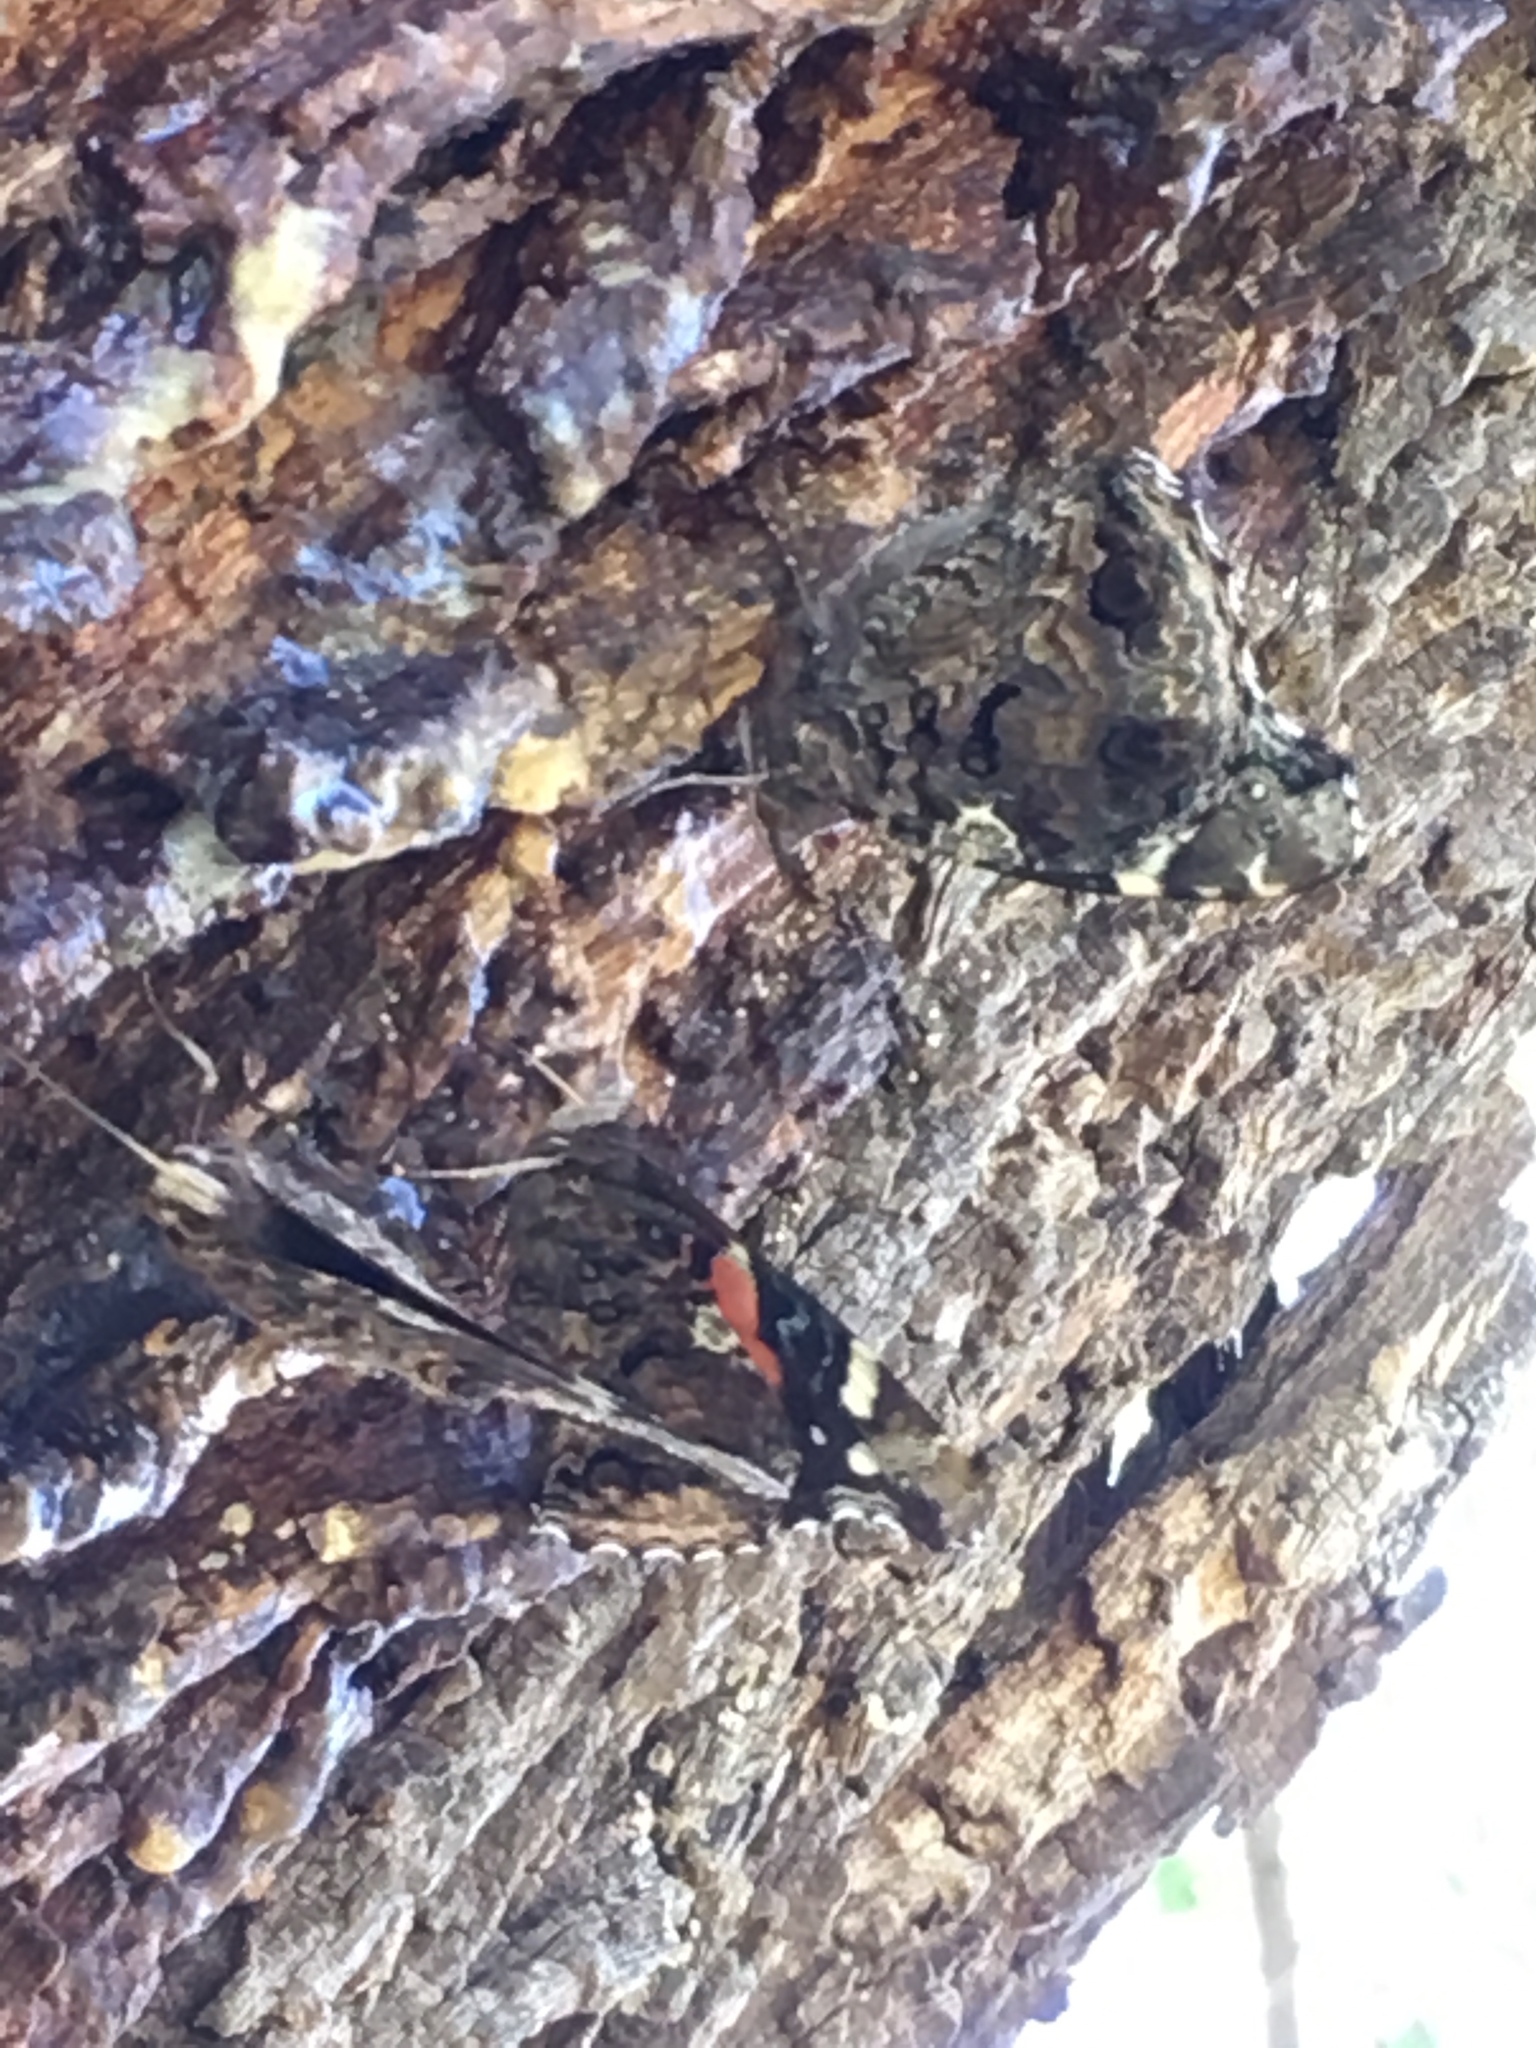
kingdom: Animalia
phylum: Arthropoda
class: Insecta
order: Lepidoptera
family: Nymphalidae
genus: Vanessa
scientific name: Vanessa atalanta
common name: Red admiral
